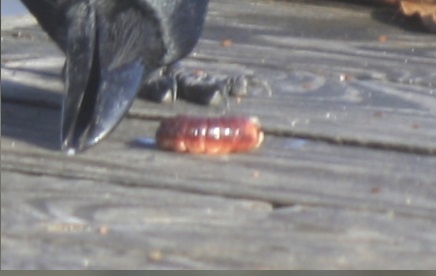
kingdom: Animalia
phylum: Arthropoda
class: Insecta
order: Lepidoptera
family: Cossidae
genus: Cossus
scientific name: Cossus cossus
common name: Goat moth
